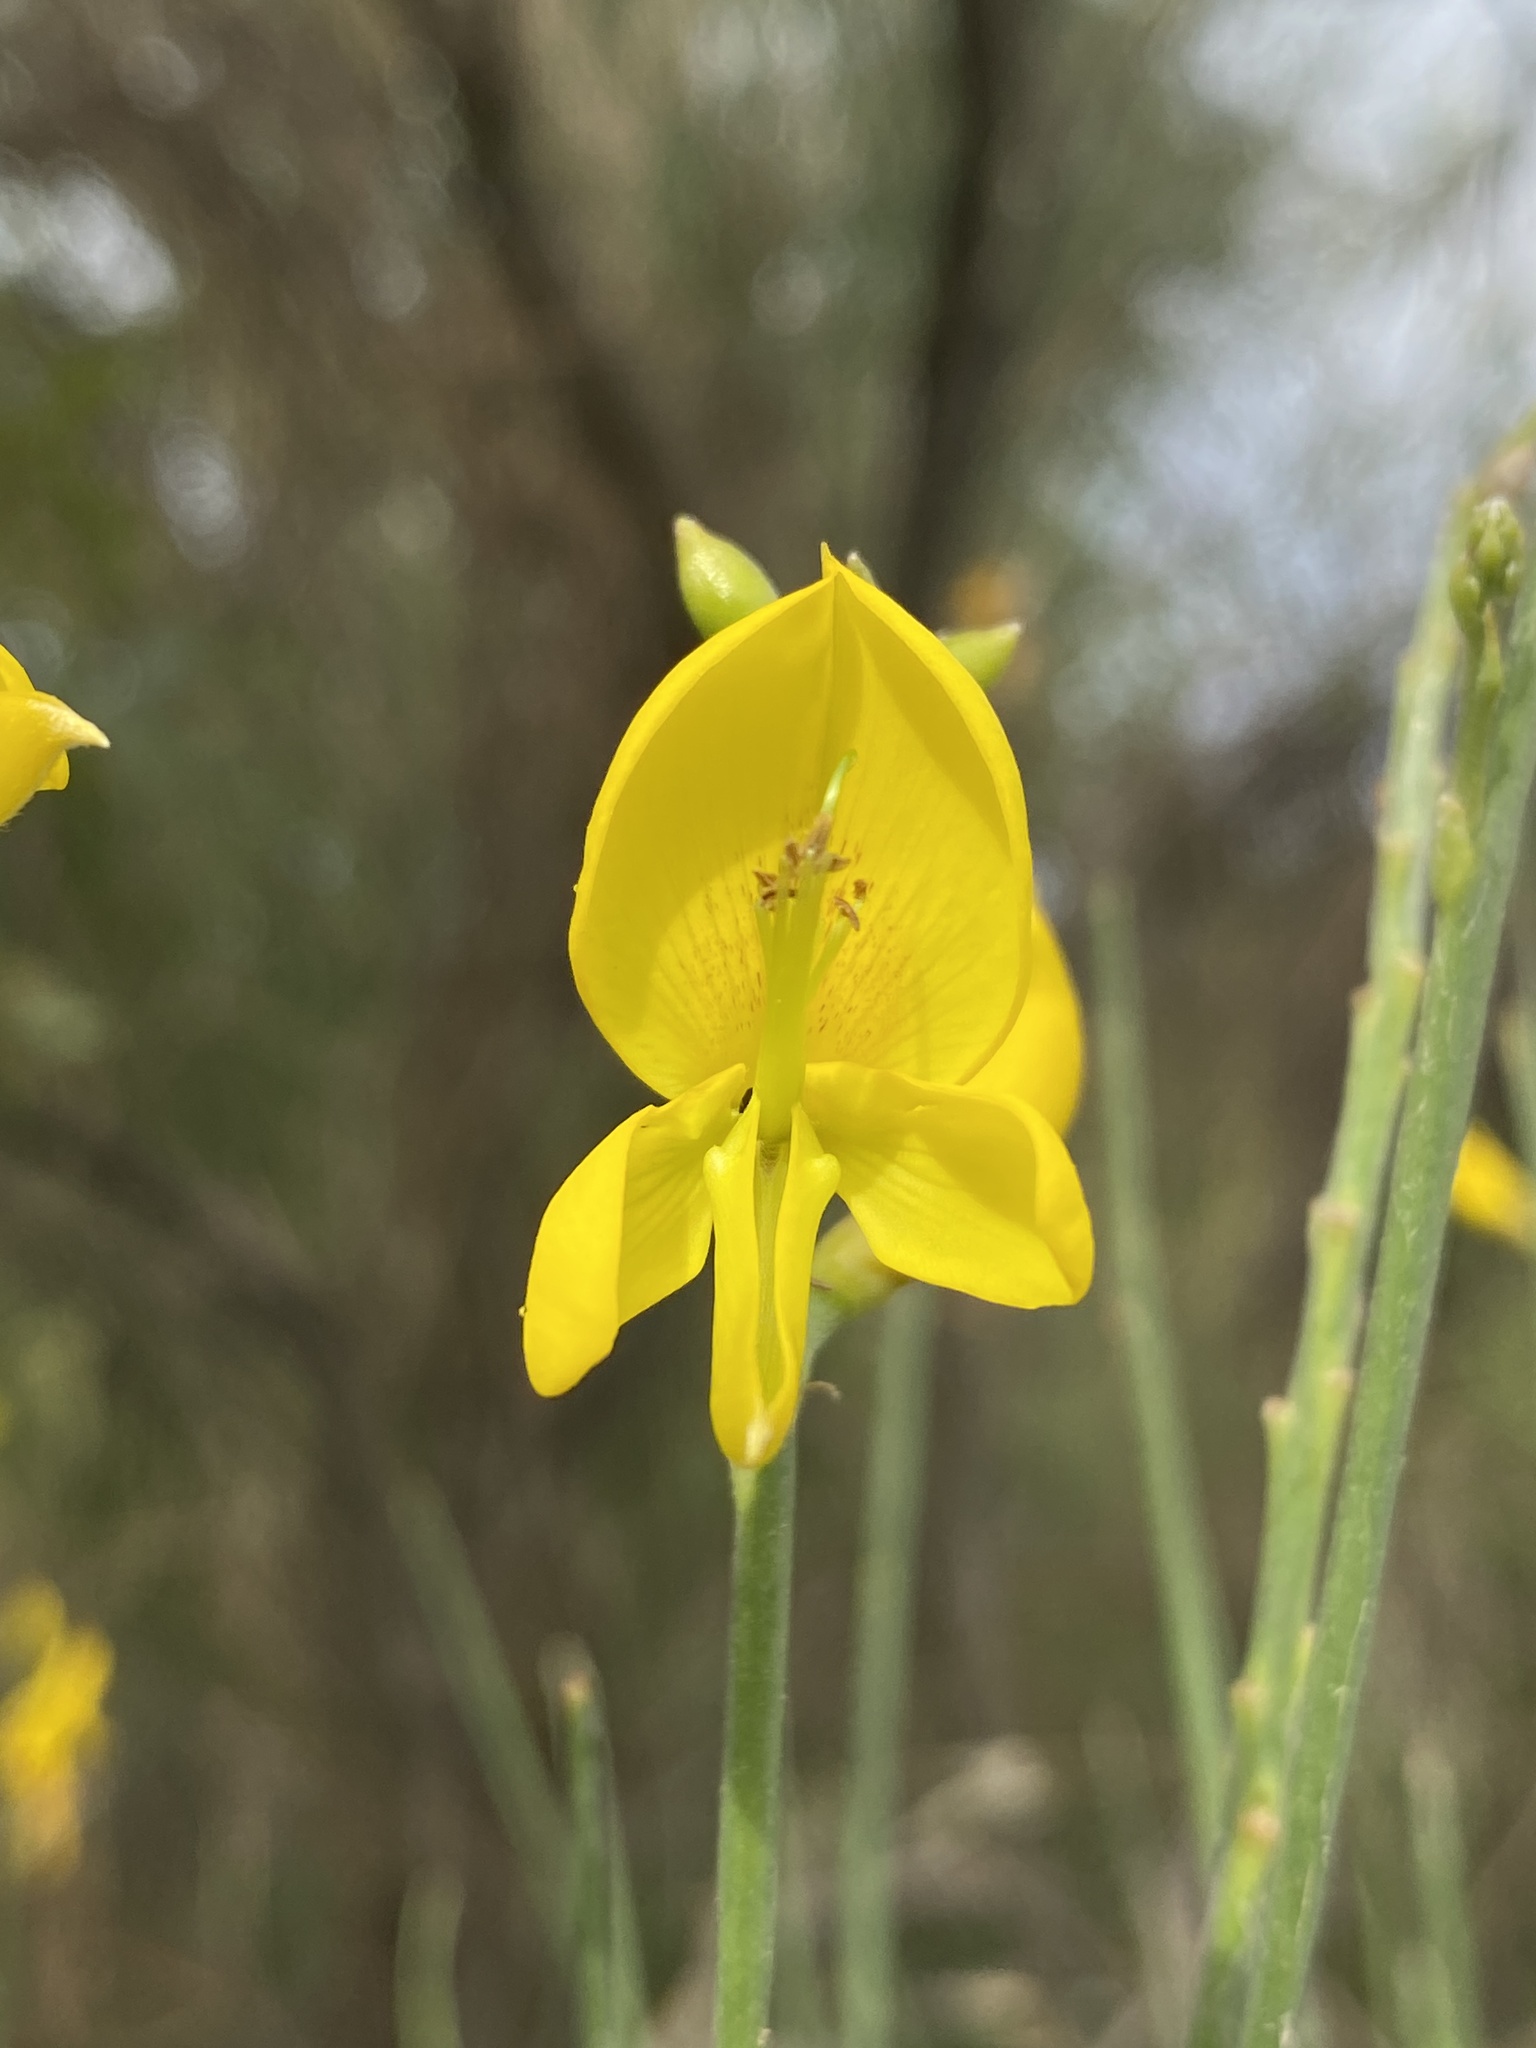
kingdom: Plantae
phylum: Tracheophyta
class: Magnoliopsida
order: Fabales
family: Fabaceae
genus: Spartium
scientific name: Spartium junceum
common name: Spanish broom
